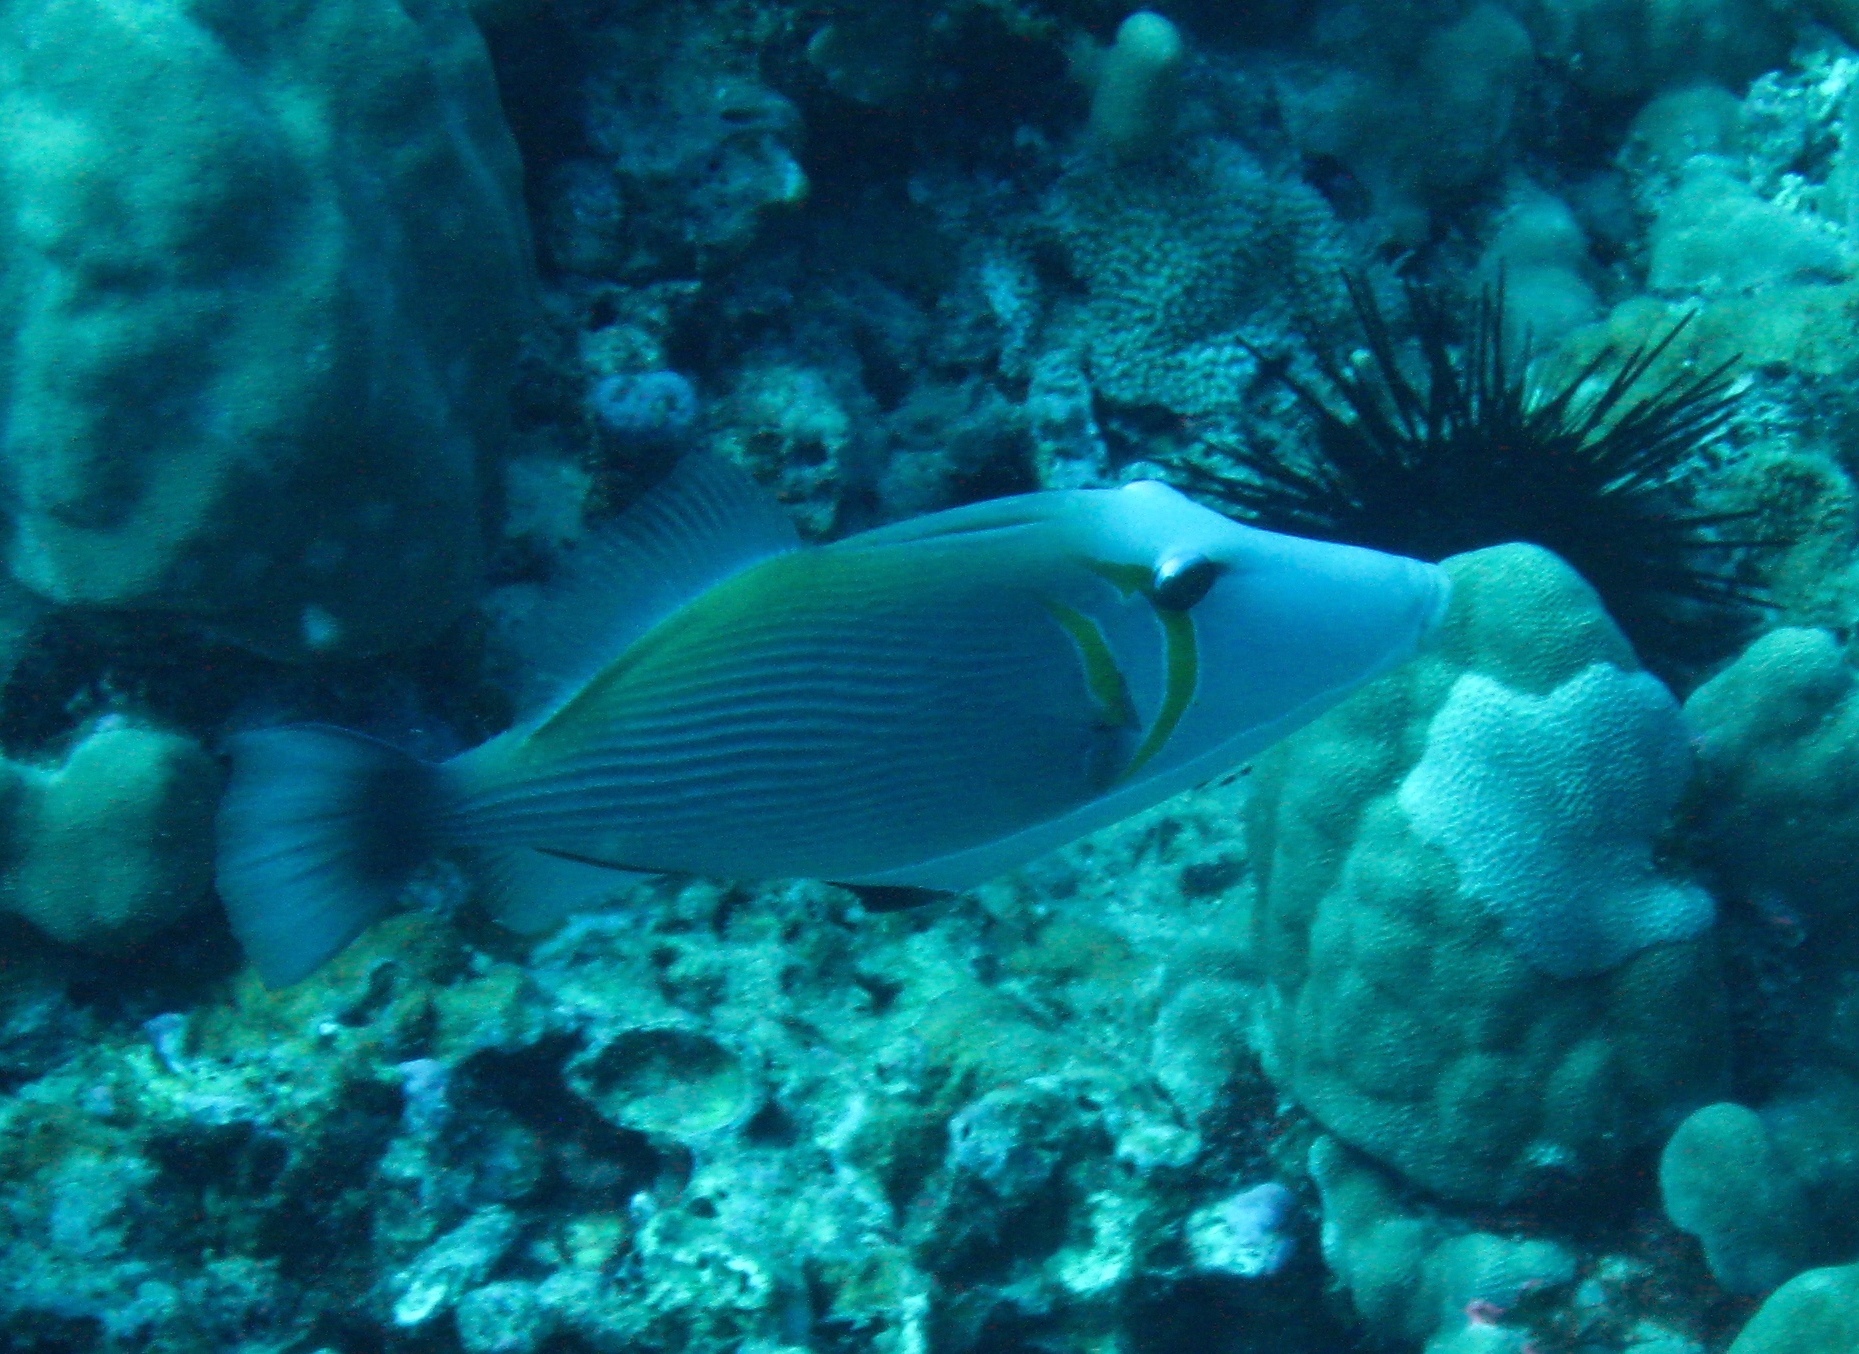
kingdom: Animalia
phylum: Chordata
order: Tetraodontiformes
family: Balistidae
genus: Sufflamen
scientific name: Sufflamen bursa
